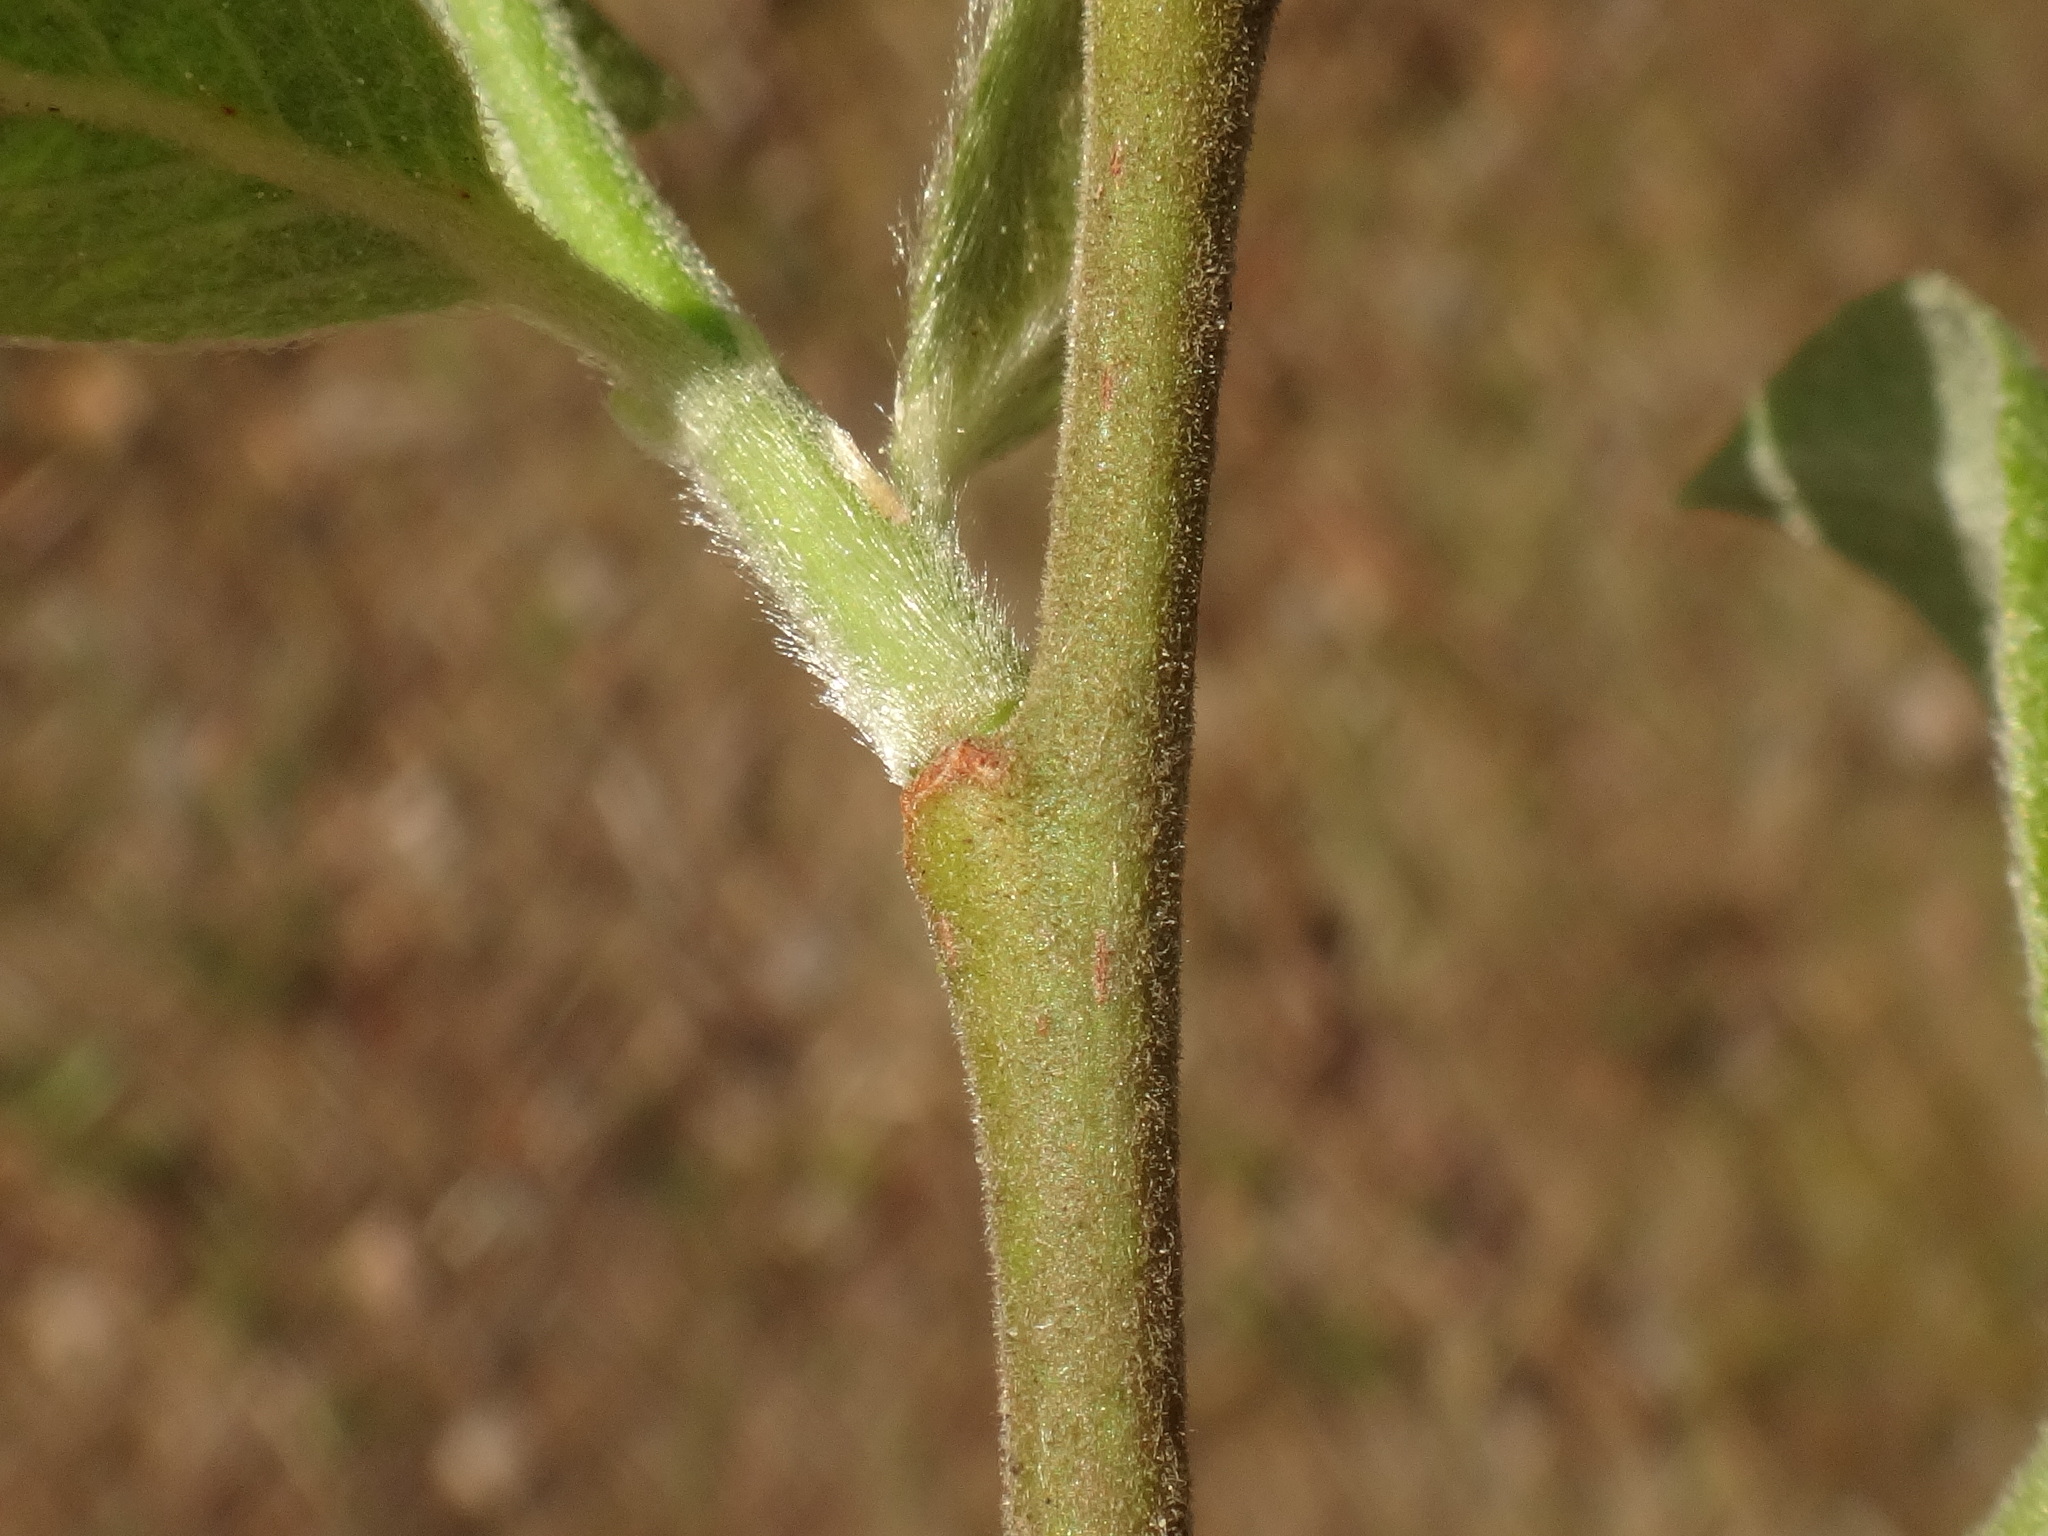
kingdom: Plantae
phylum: Tracheophyta
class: Magnoliopsida
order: Malpighiales
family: Salicaceae
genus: Salix
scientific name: Salix caprea
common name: Goat willow
